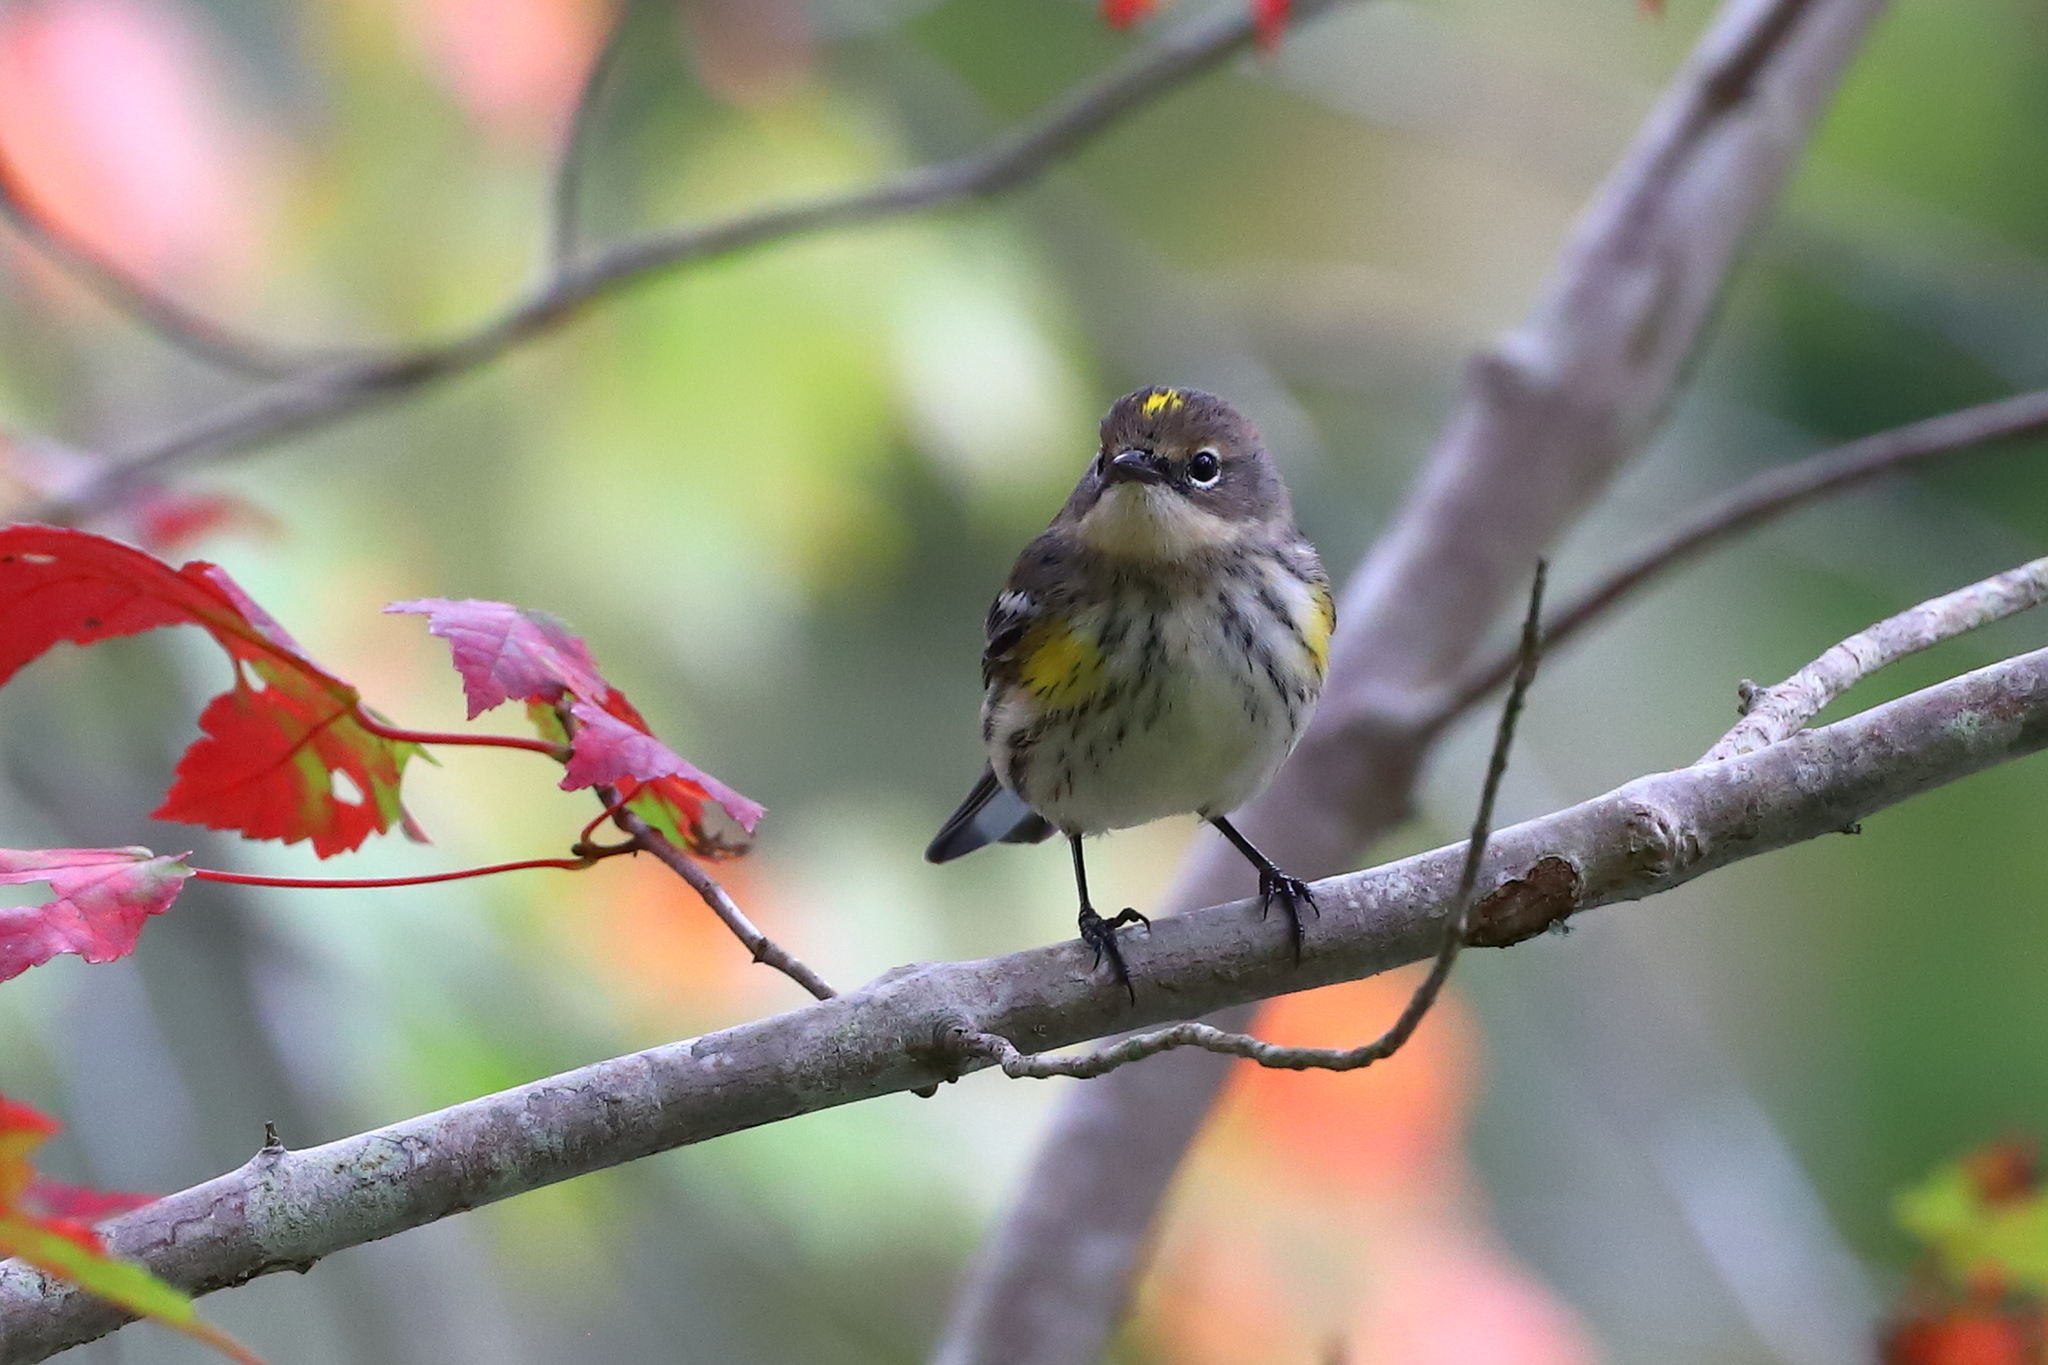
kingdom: Animalia
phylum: Chordata
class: Aves
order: Passeriformes
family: Parulidae
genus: Setophaga
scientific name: Setophaga coronata
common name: Myrtle warbler
